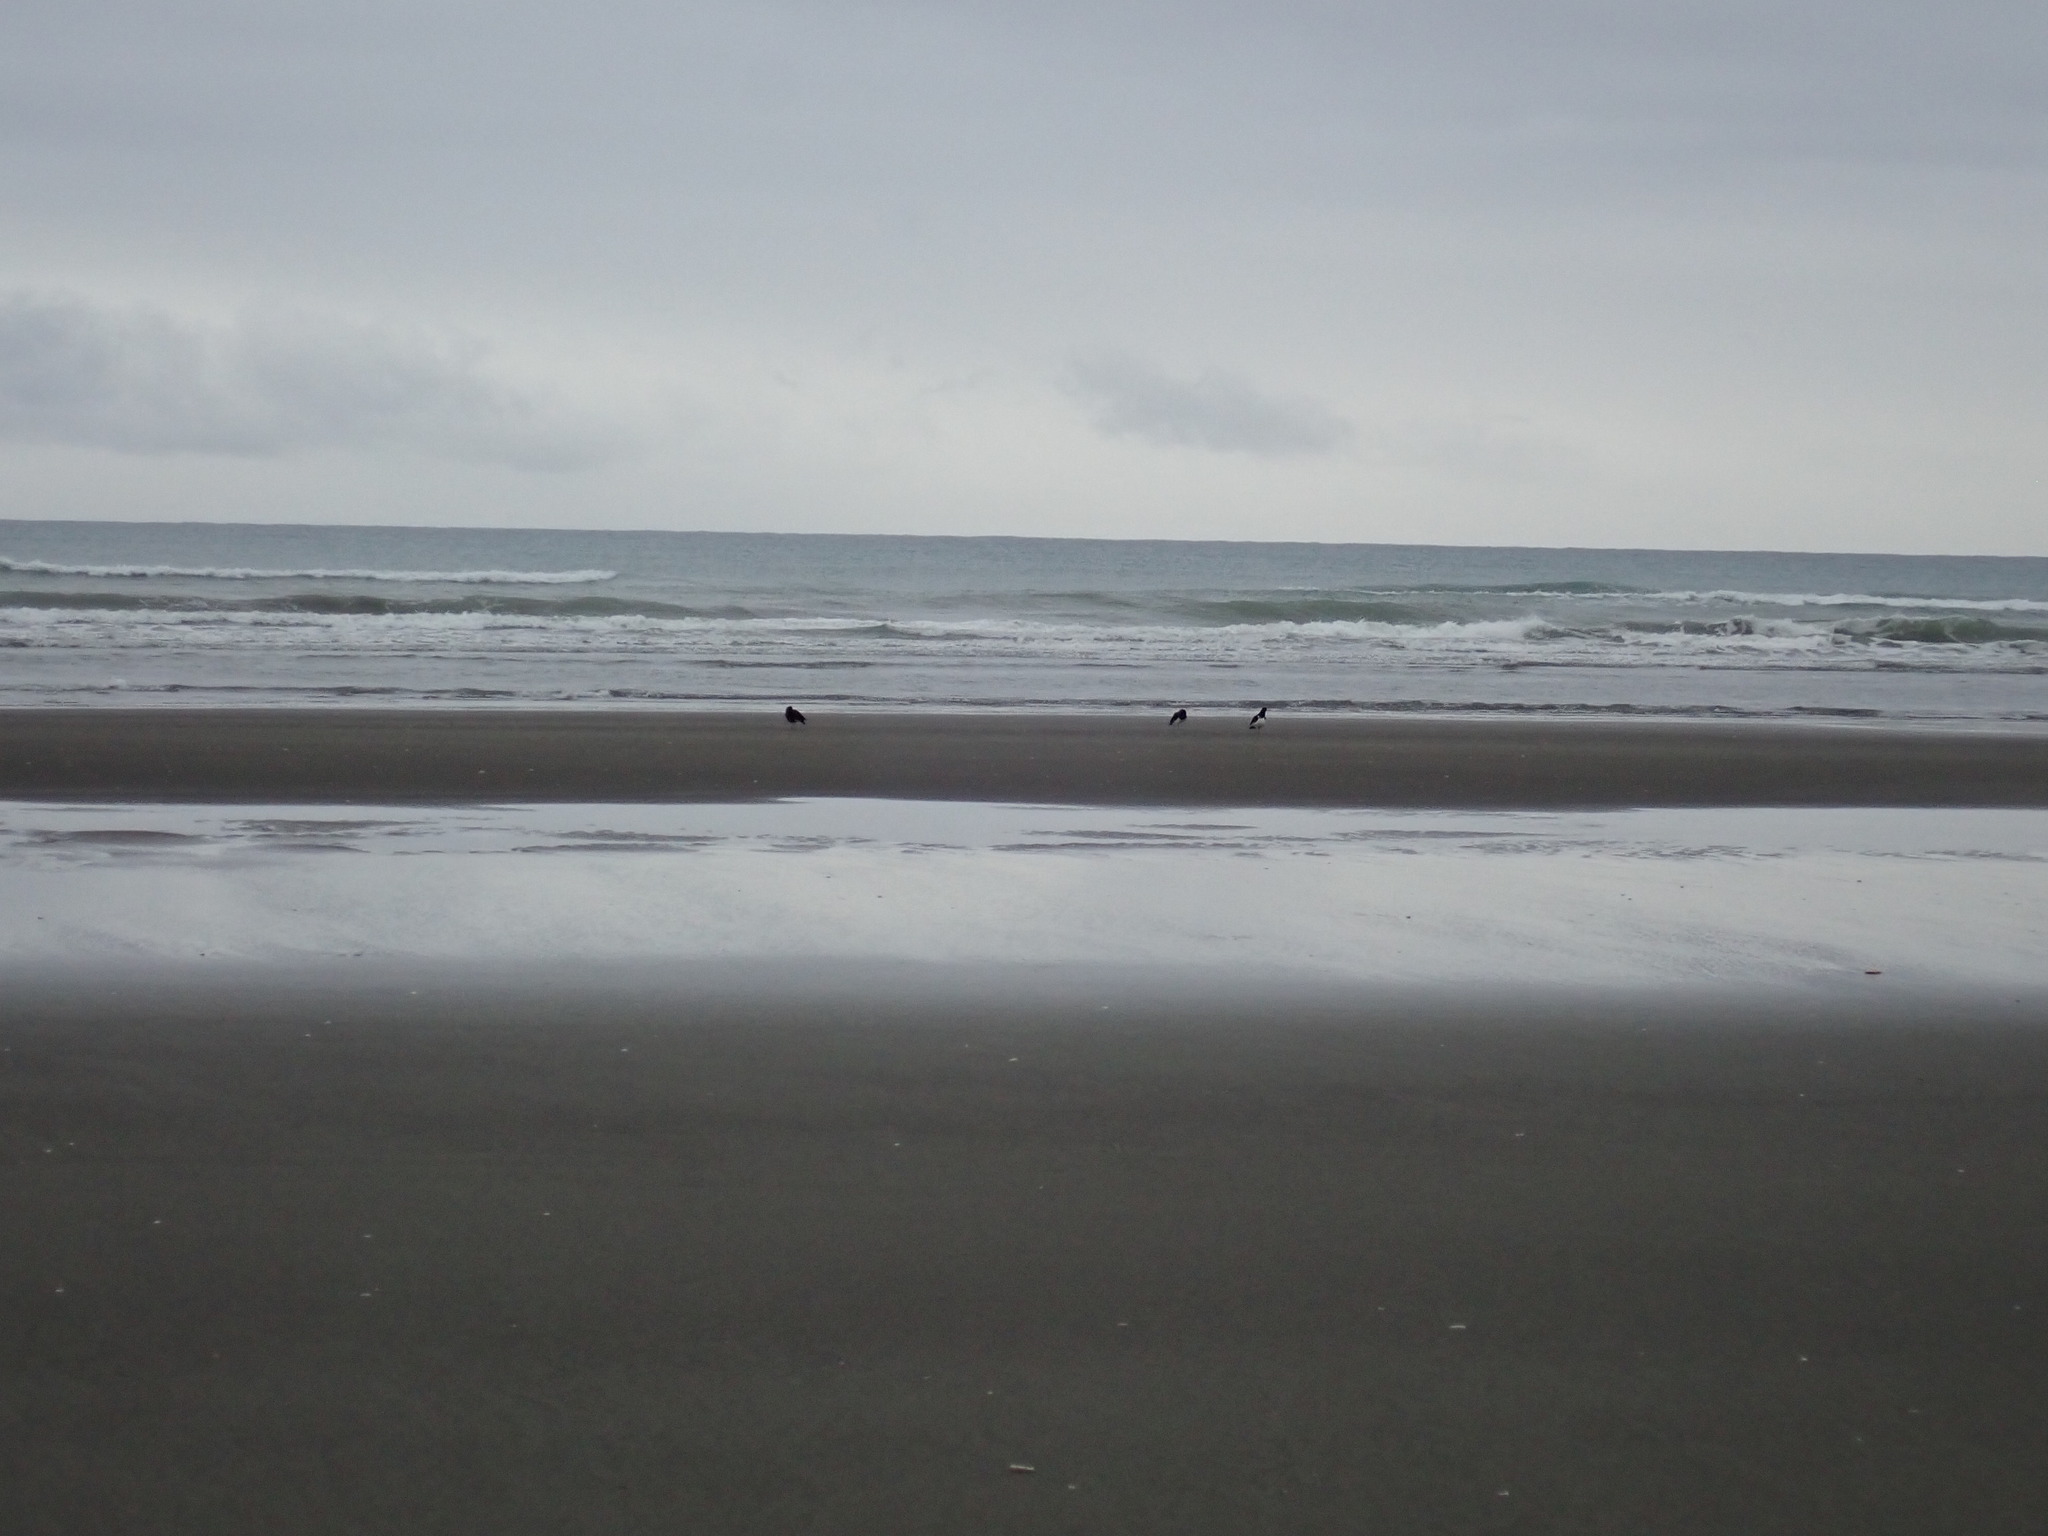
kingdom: Animalia
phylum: Chordata
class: Aves
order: Charadriiformes
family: Haematopodidae
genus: Haematopus
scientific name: Haematopus finschi
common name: South island oystercatcher
